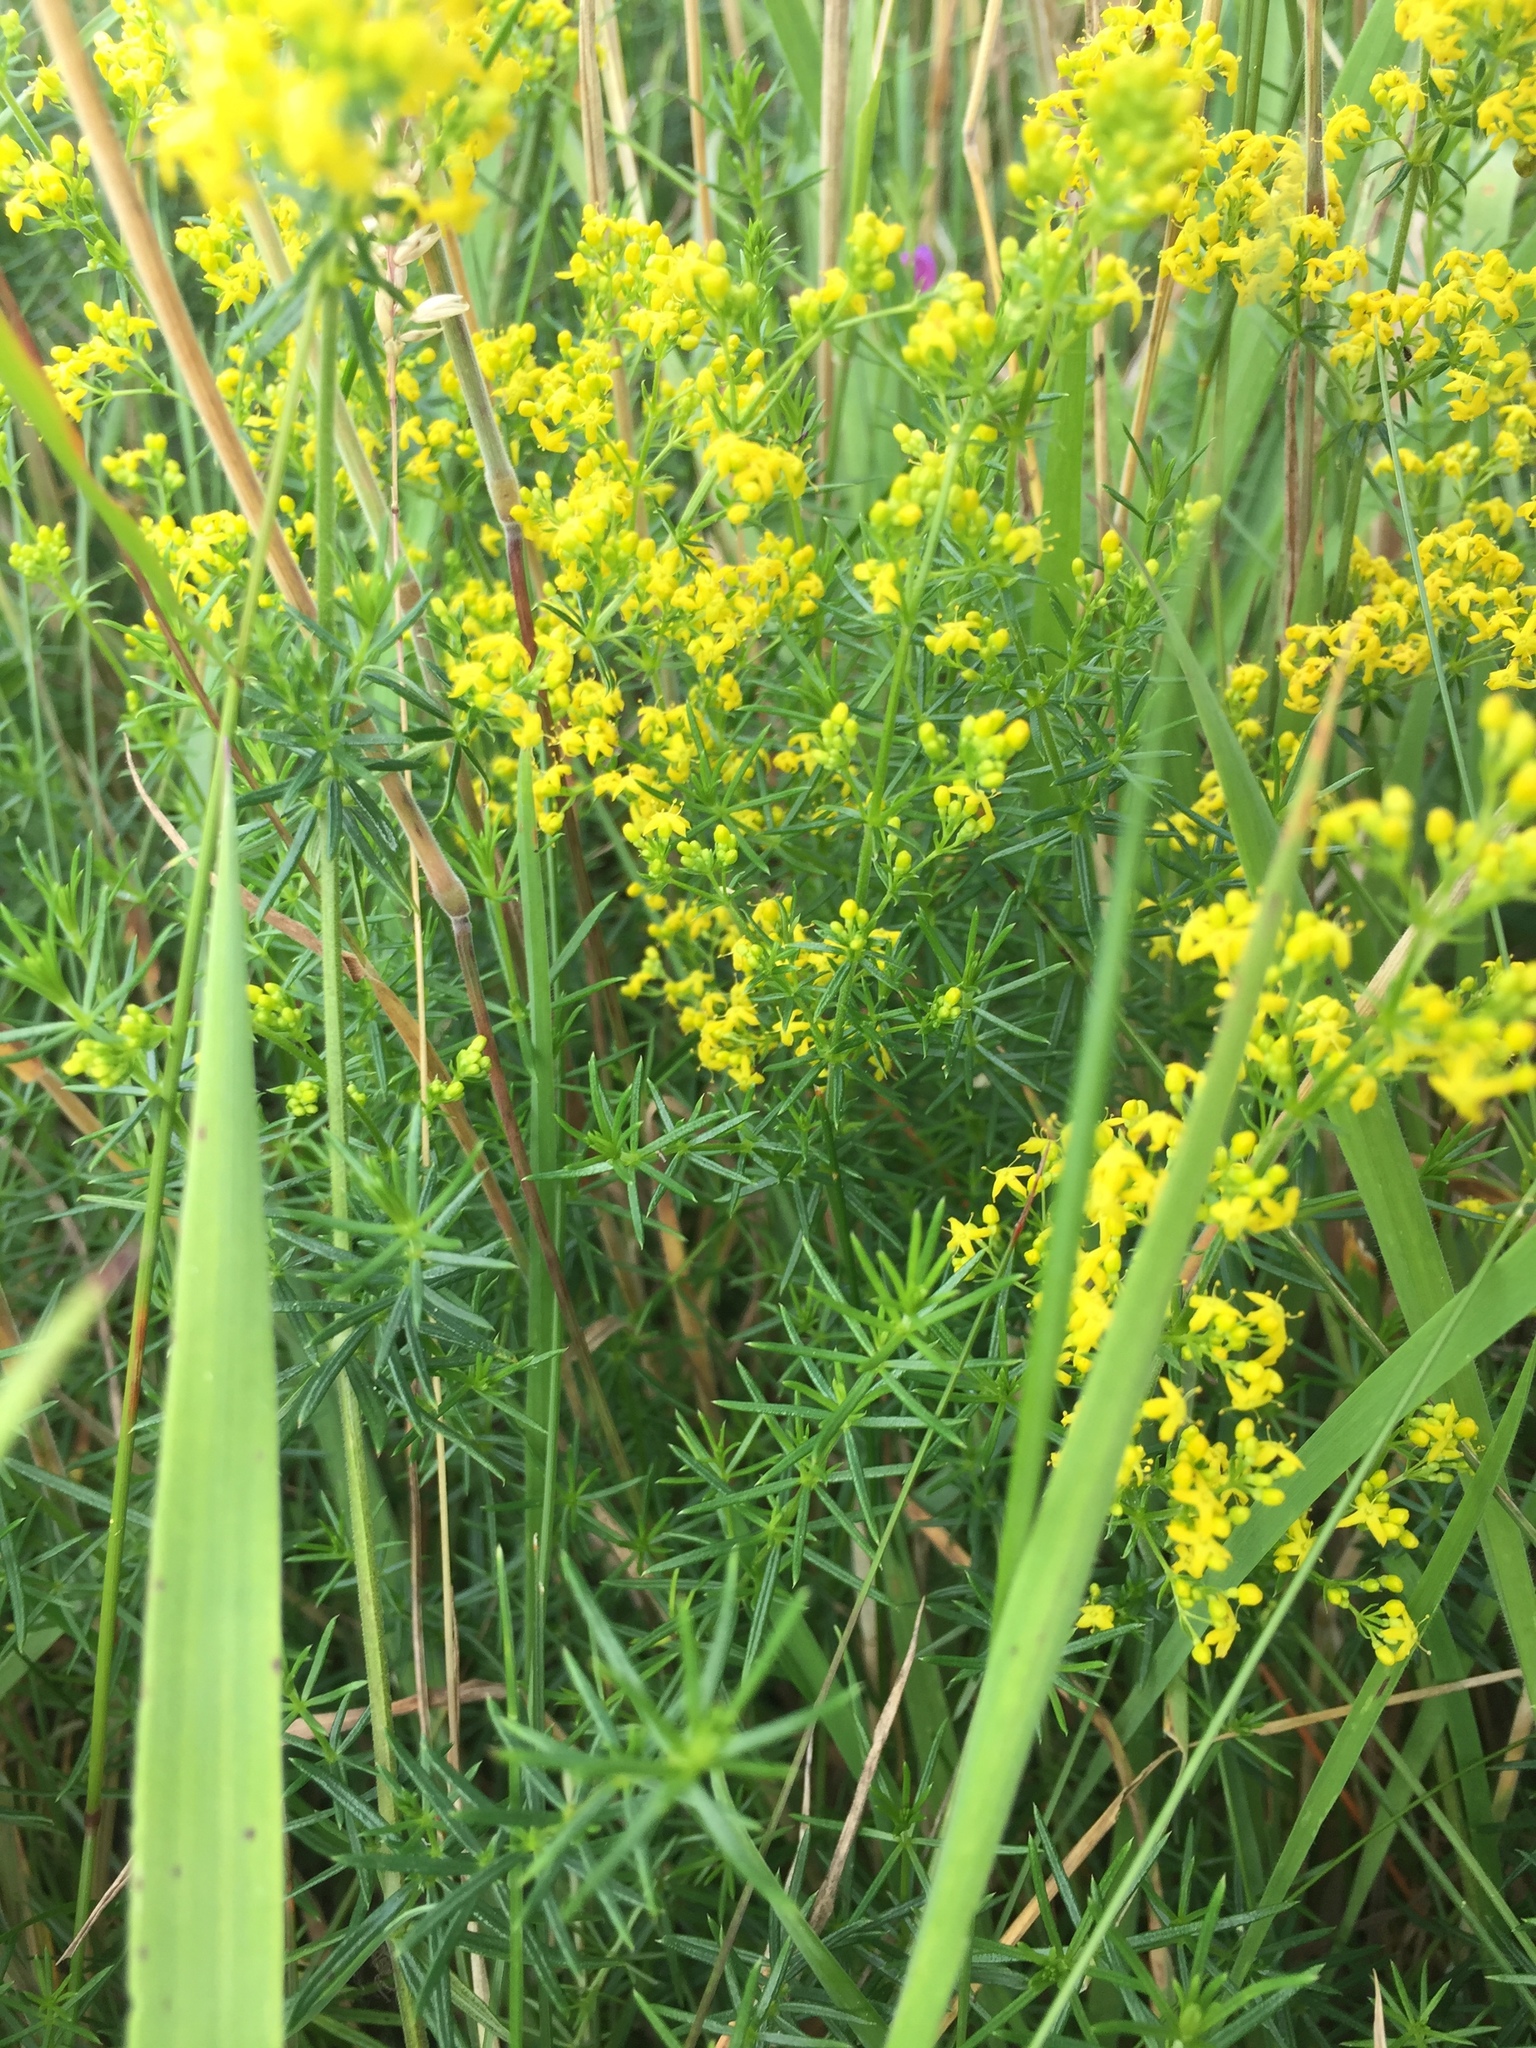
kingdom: Plantae
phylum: Tracheophyta
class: Magnoliopsida
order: Gentianales
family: Rubiaceae
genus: Galium
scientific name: Galium verum
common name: Lady's bedstraw
